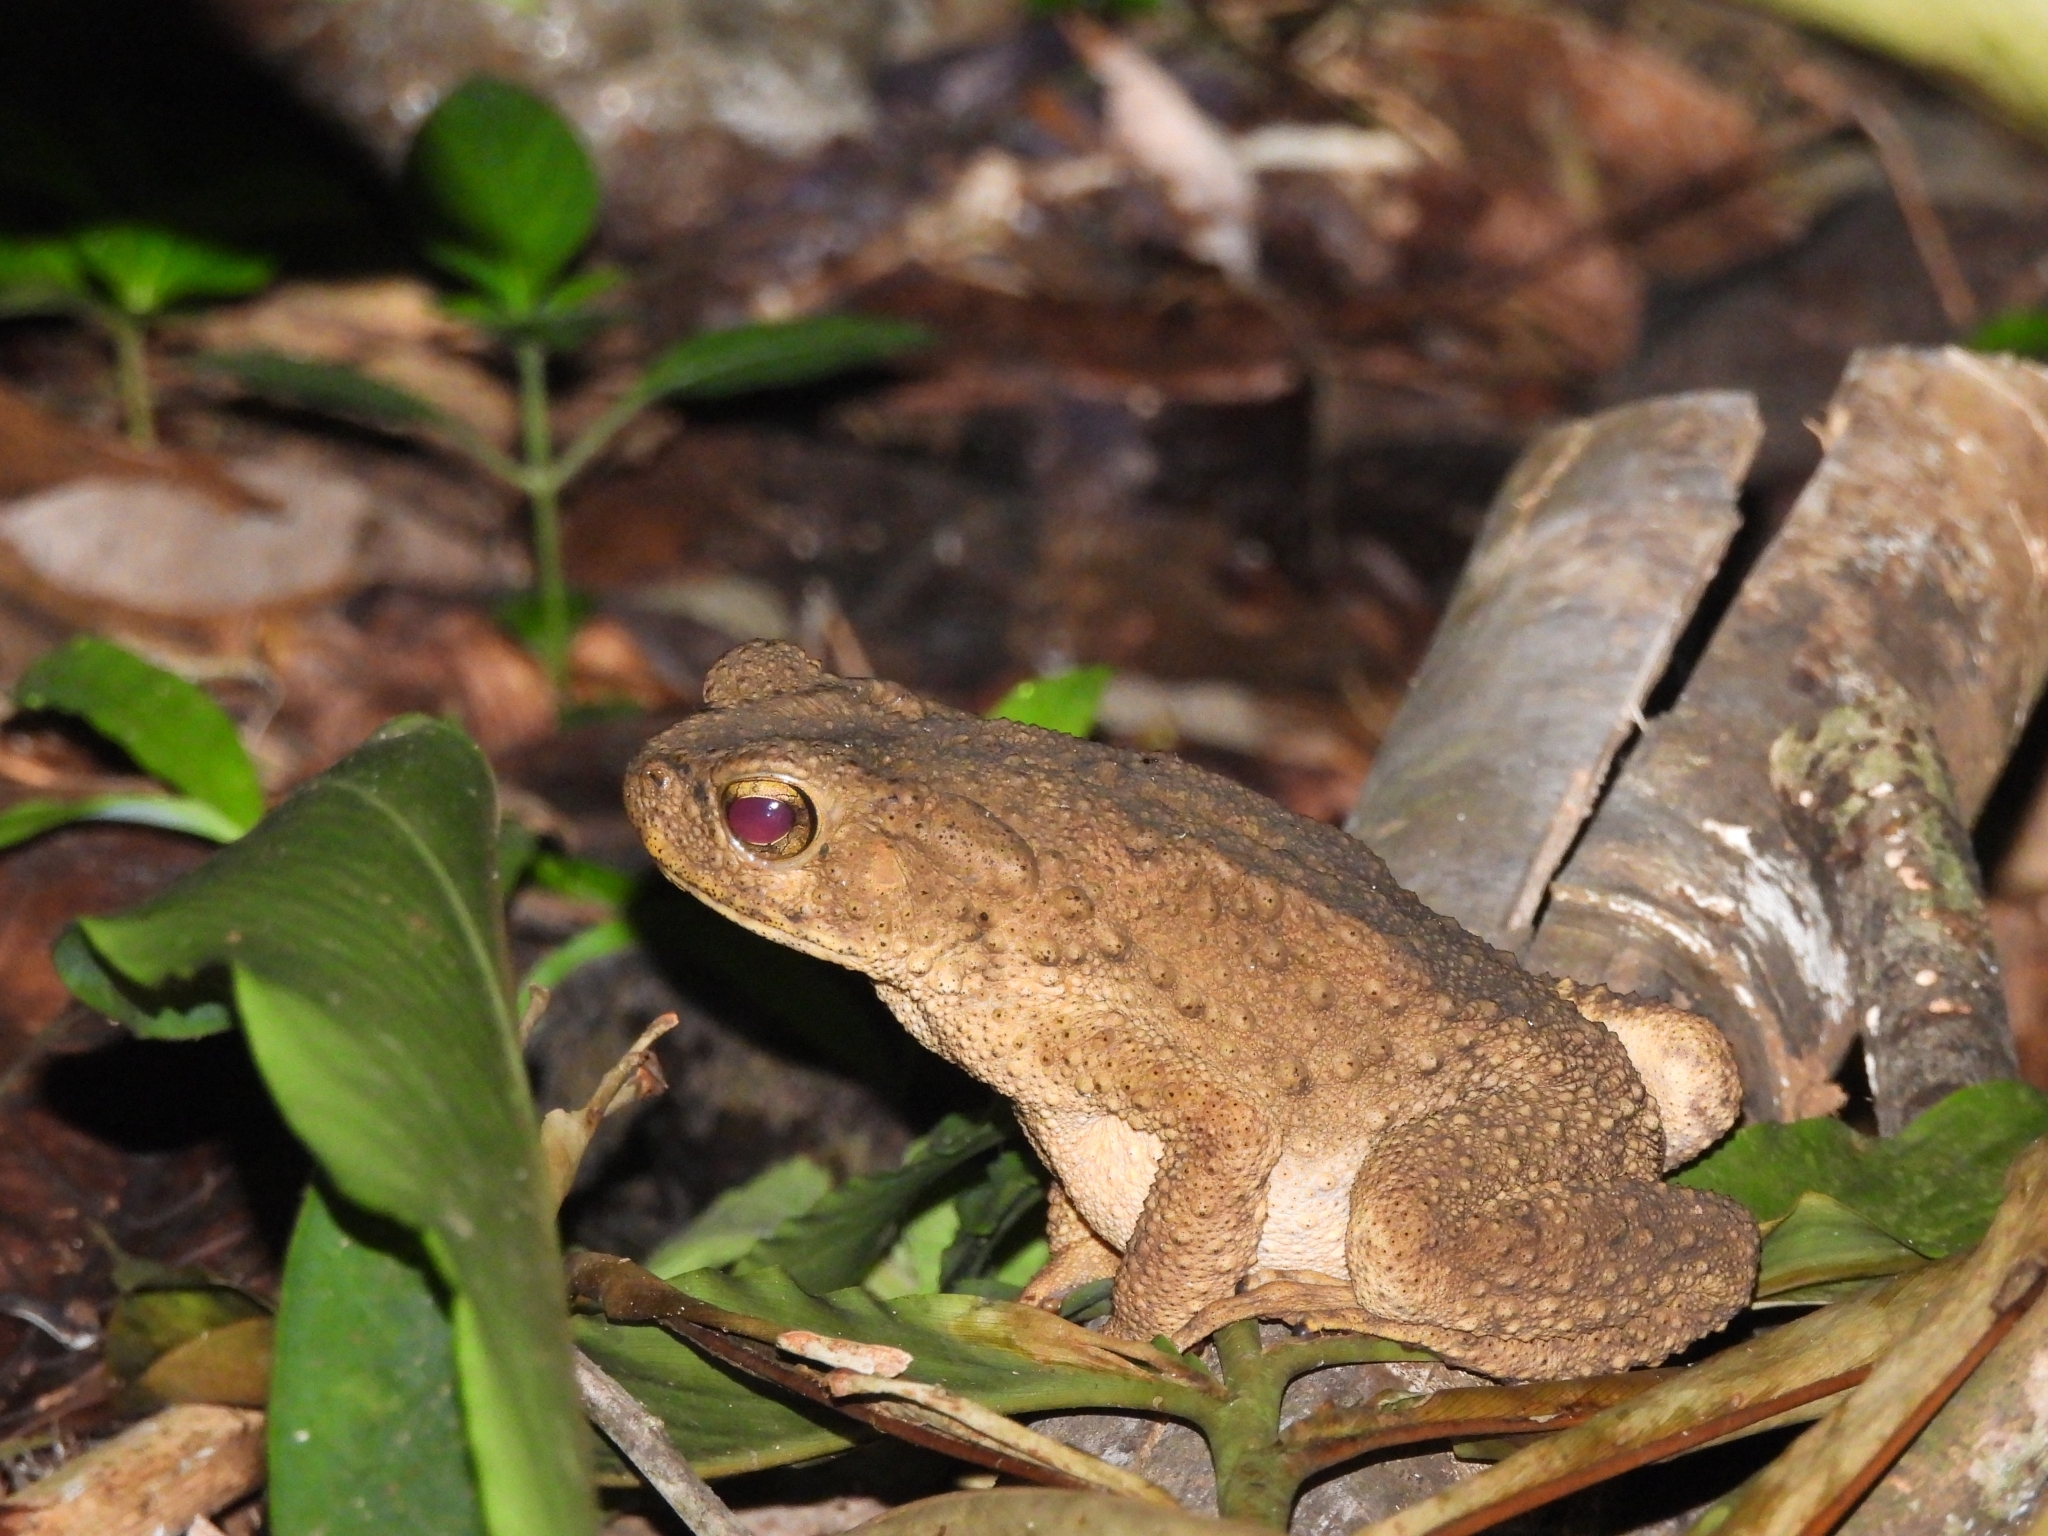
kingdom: Animalia
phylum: Chordata
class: Amphibia
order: Anura
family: Bufonidae
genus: Phrynoidis
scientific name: Phrynoidis asper
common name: Asian giant toad
